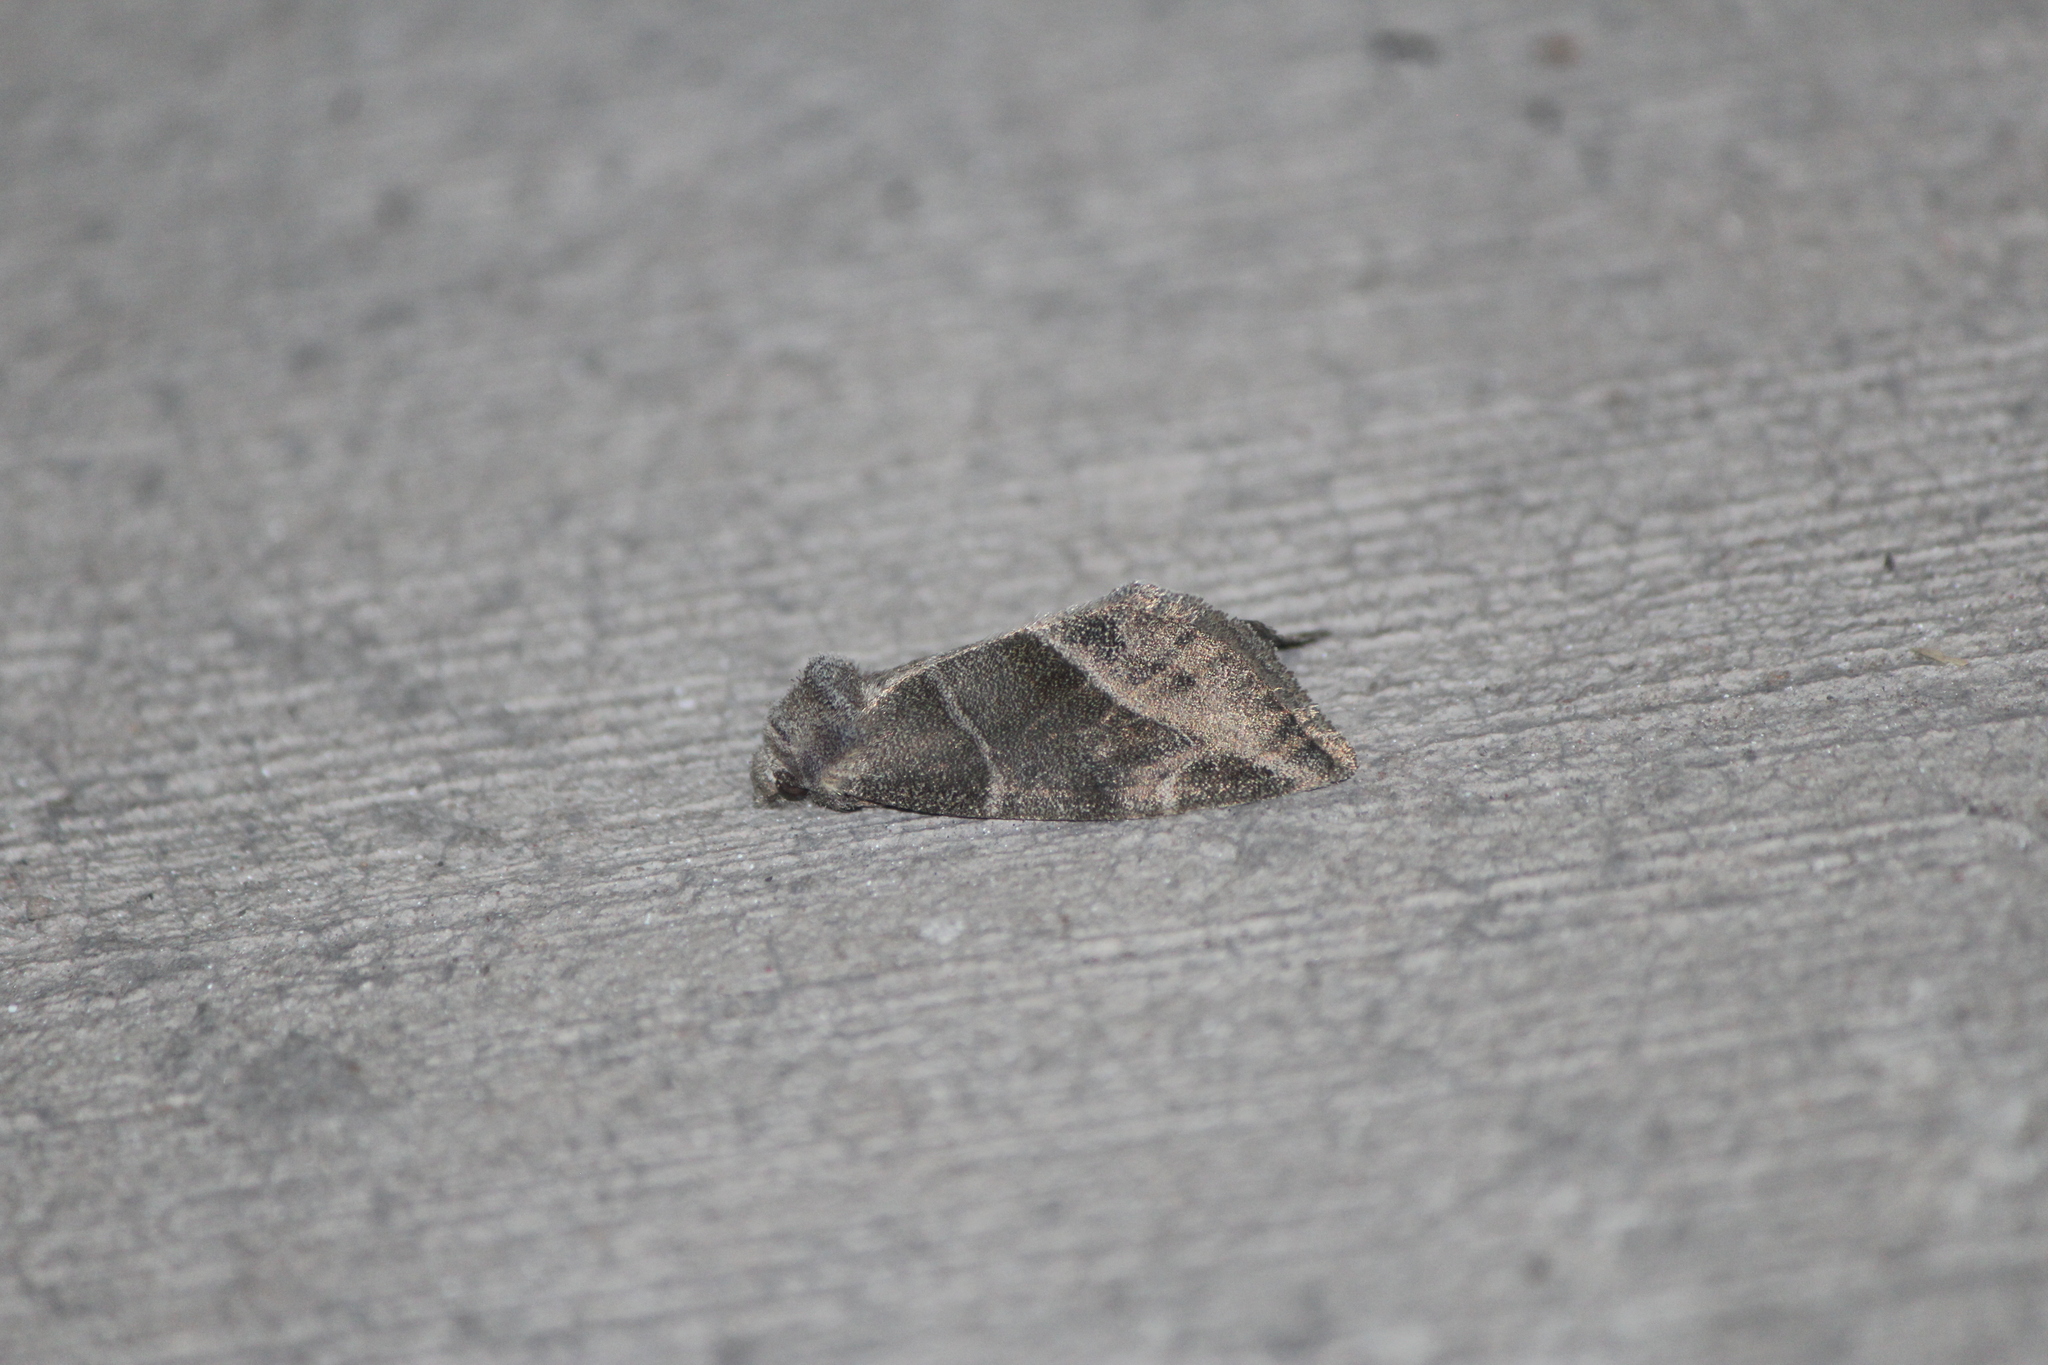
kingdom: Animalia
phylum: Arthropoda
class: Insecta
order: Lepidoptera
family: Noctuidae
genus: Plagiomimicus
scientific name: Plagiomimicus
